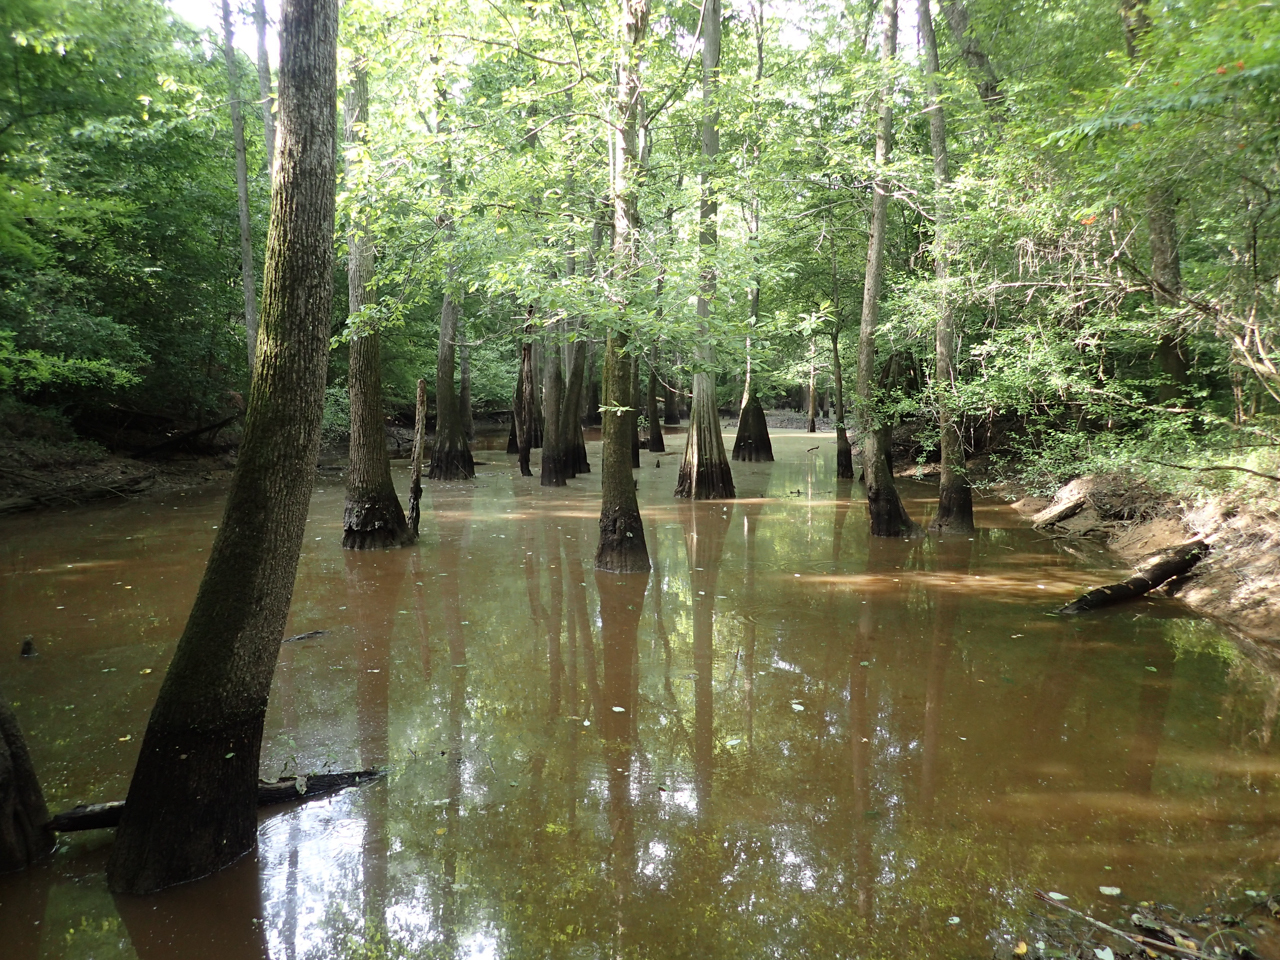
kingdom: Plantae
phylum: Tracheophyta
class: Pinopsida
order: Pinales
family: Cupressaceae
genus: Taxodium
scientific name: Taxodium distichum
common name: Bald cypress
